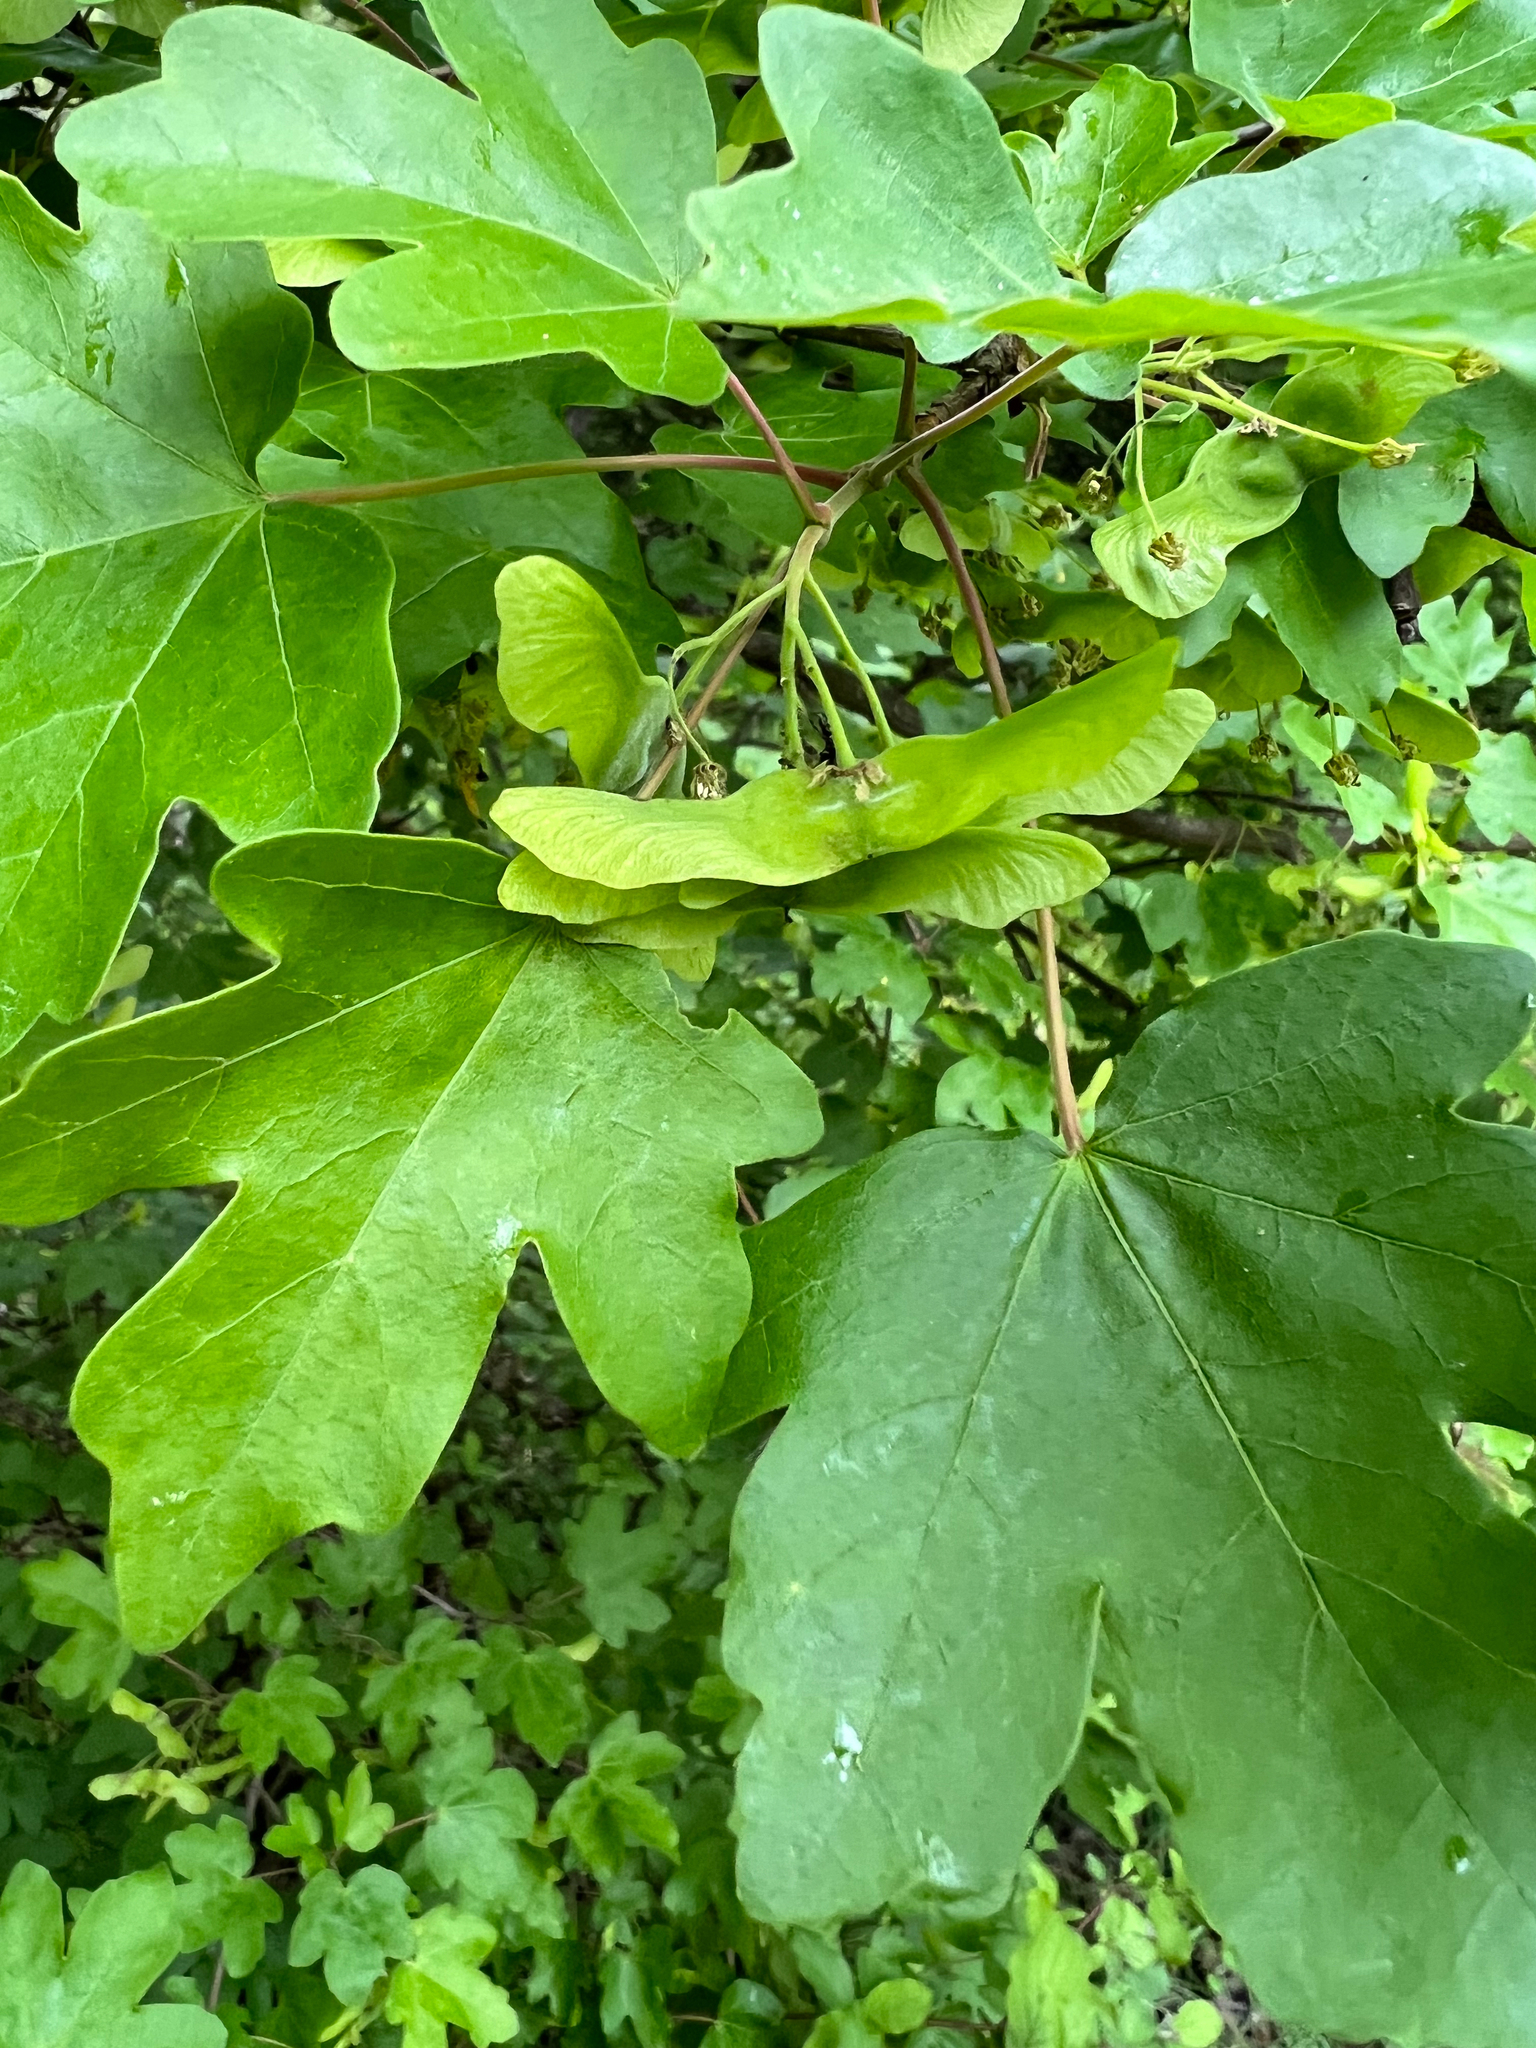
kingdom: Plantae
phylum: Tracheophyta
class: Magnoliopsida
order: Sapindales
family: Sapindaceae
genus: Acer
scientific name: Acer campestre
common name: Field maple
